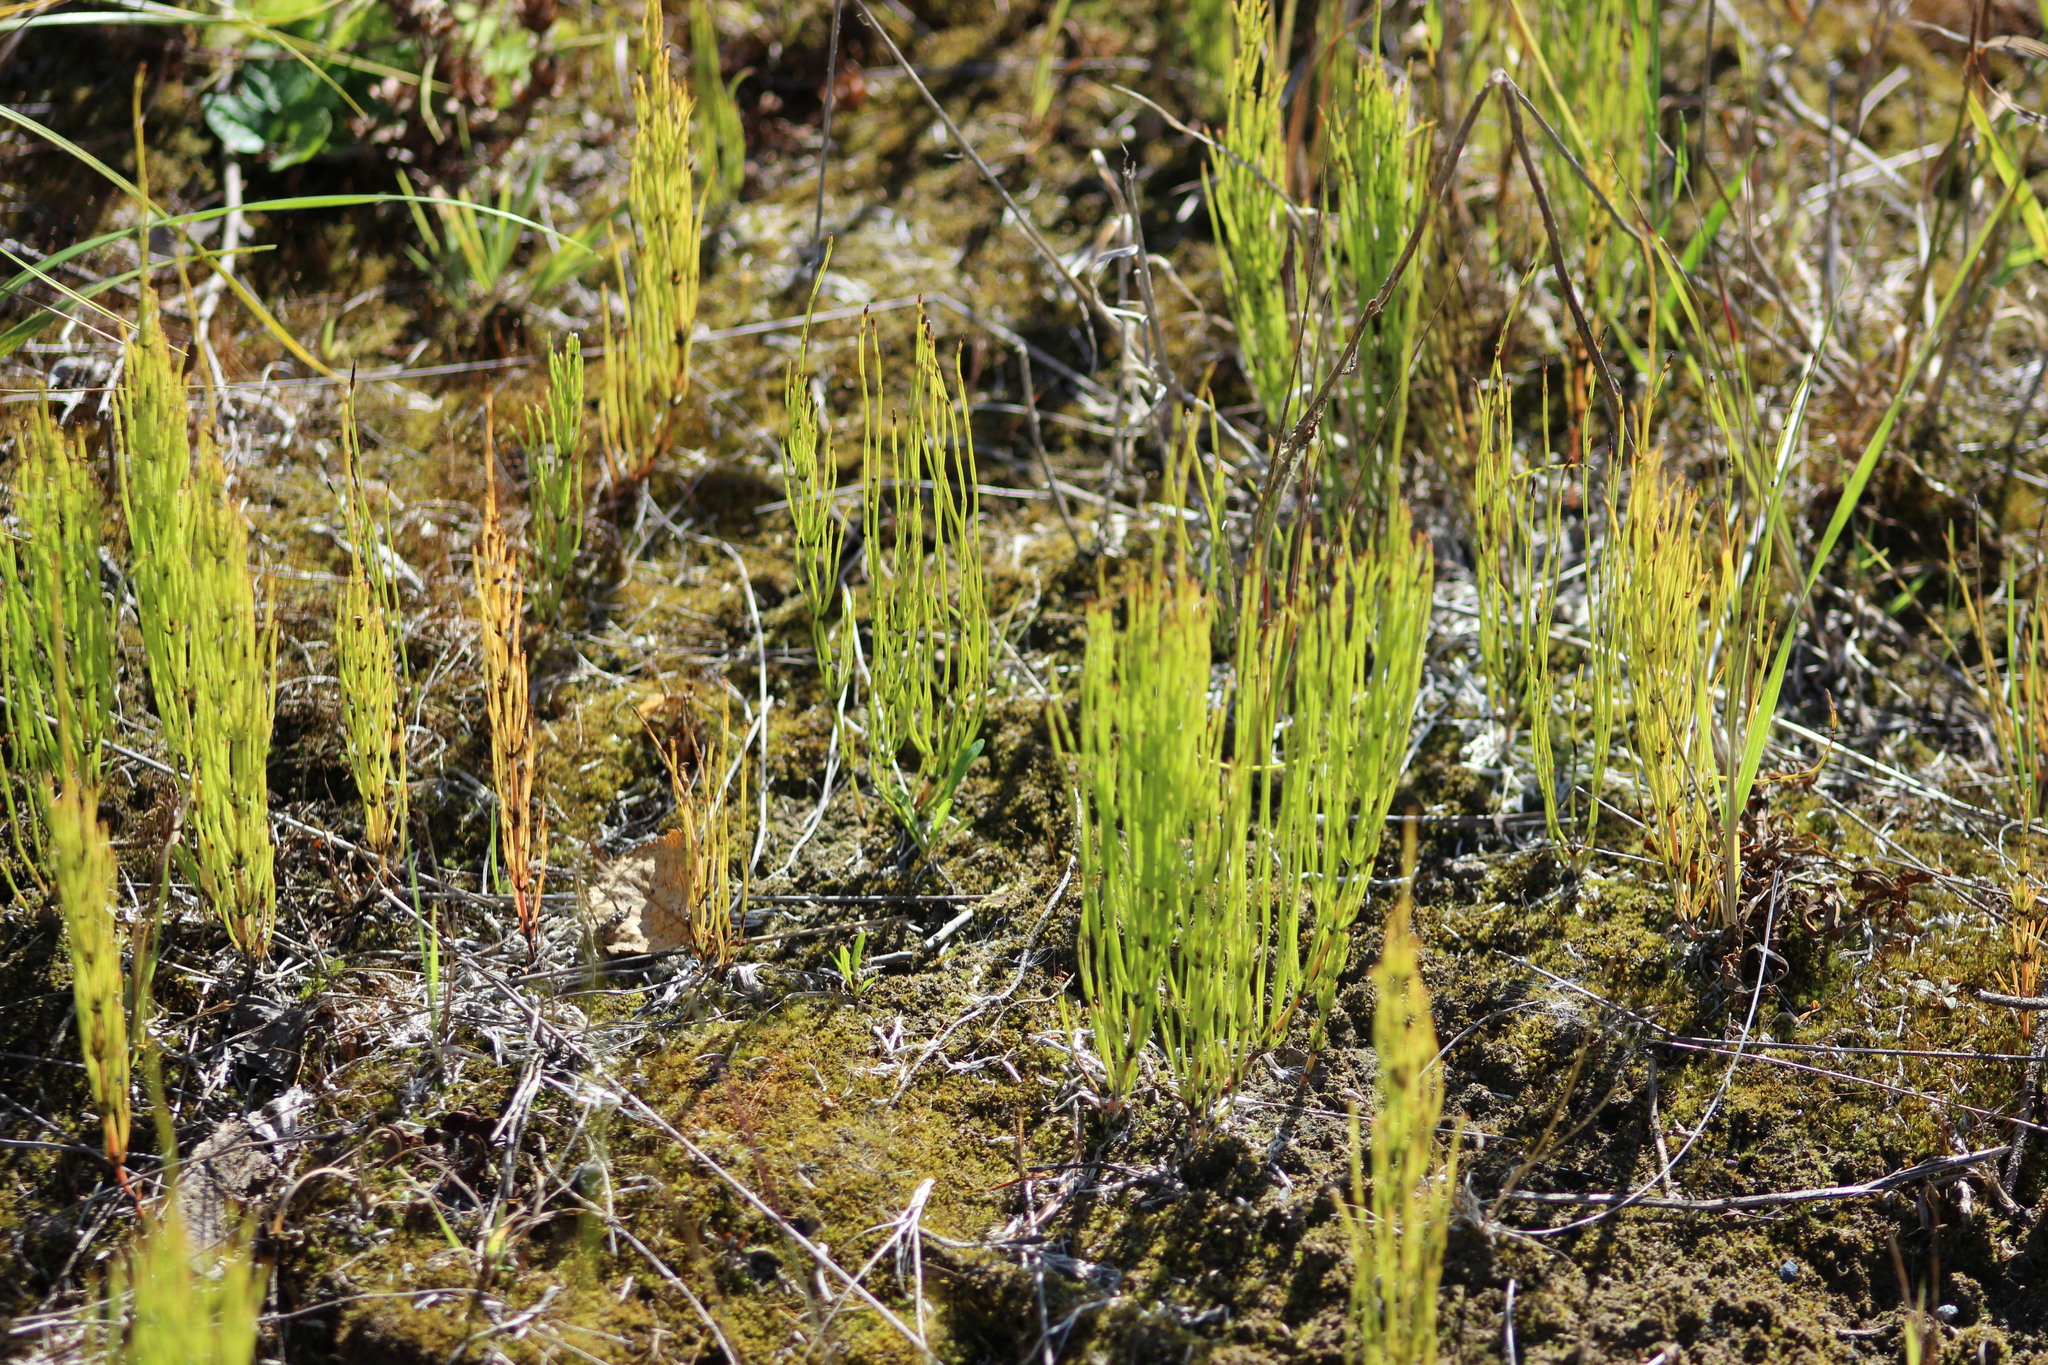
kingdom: Plantae
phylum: Tracheophyta
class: Polypodiopsida
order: Equisetales
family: Equisetaceae
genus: Equisetum
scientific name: Equisetum arvense
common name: Field horsetail
